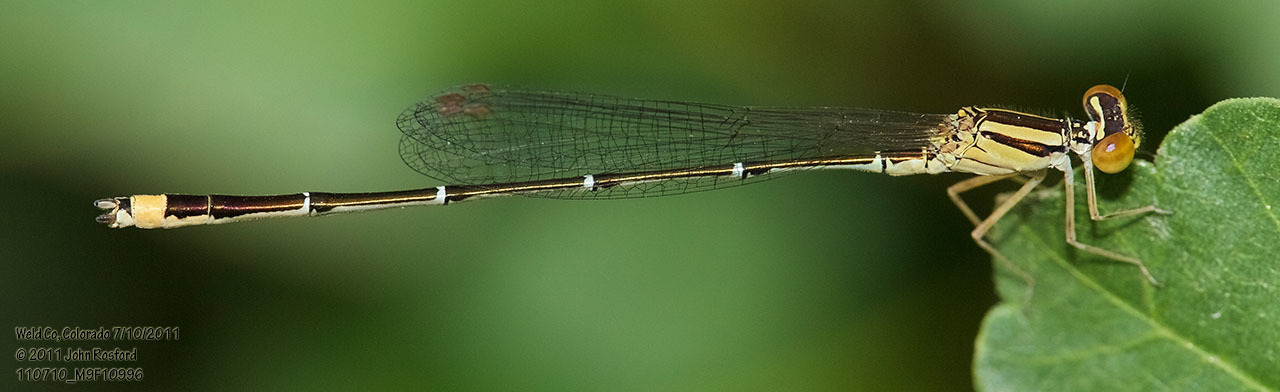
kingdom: Animalia
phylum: Arthropoda
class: Insecta
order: Odonata
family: Coenagrionidae
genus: Enallagma
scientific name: Enallagma signatum
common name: Orange bluet
